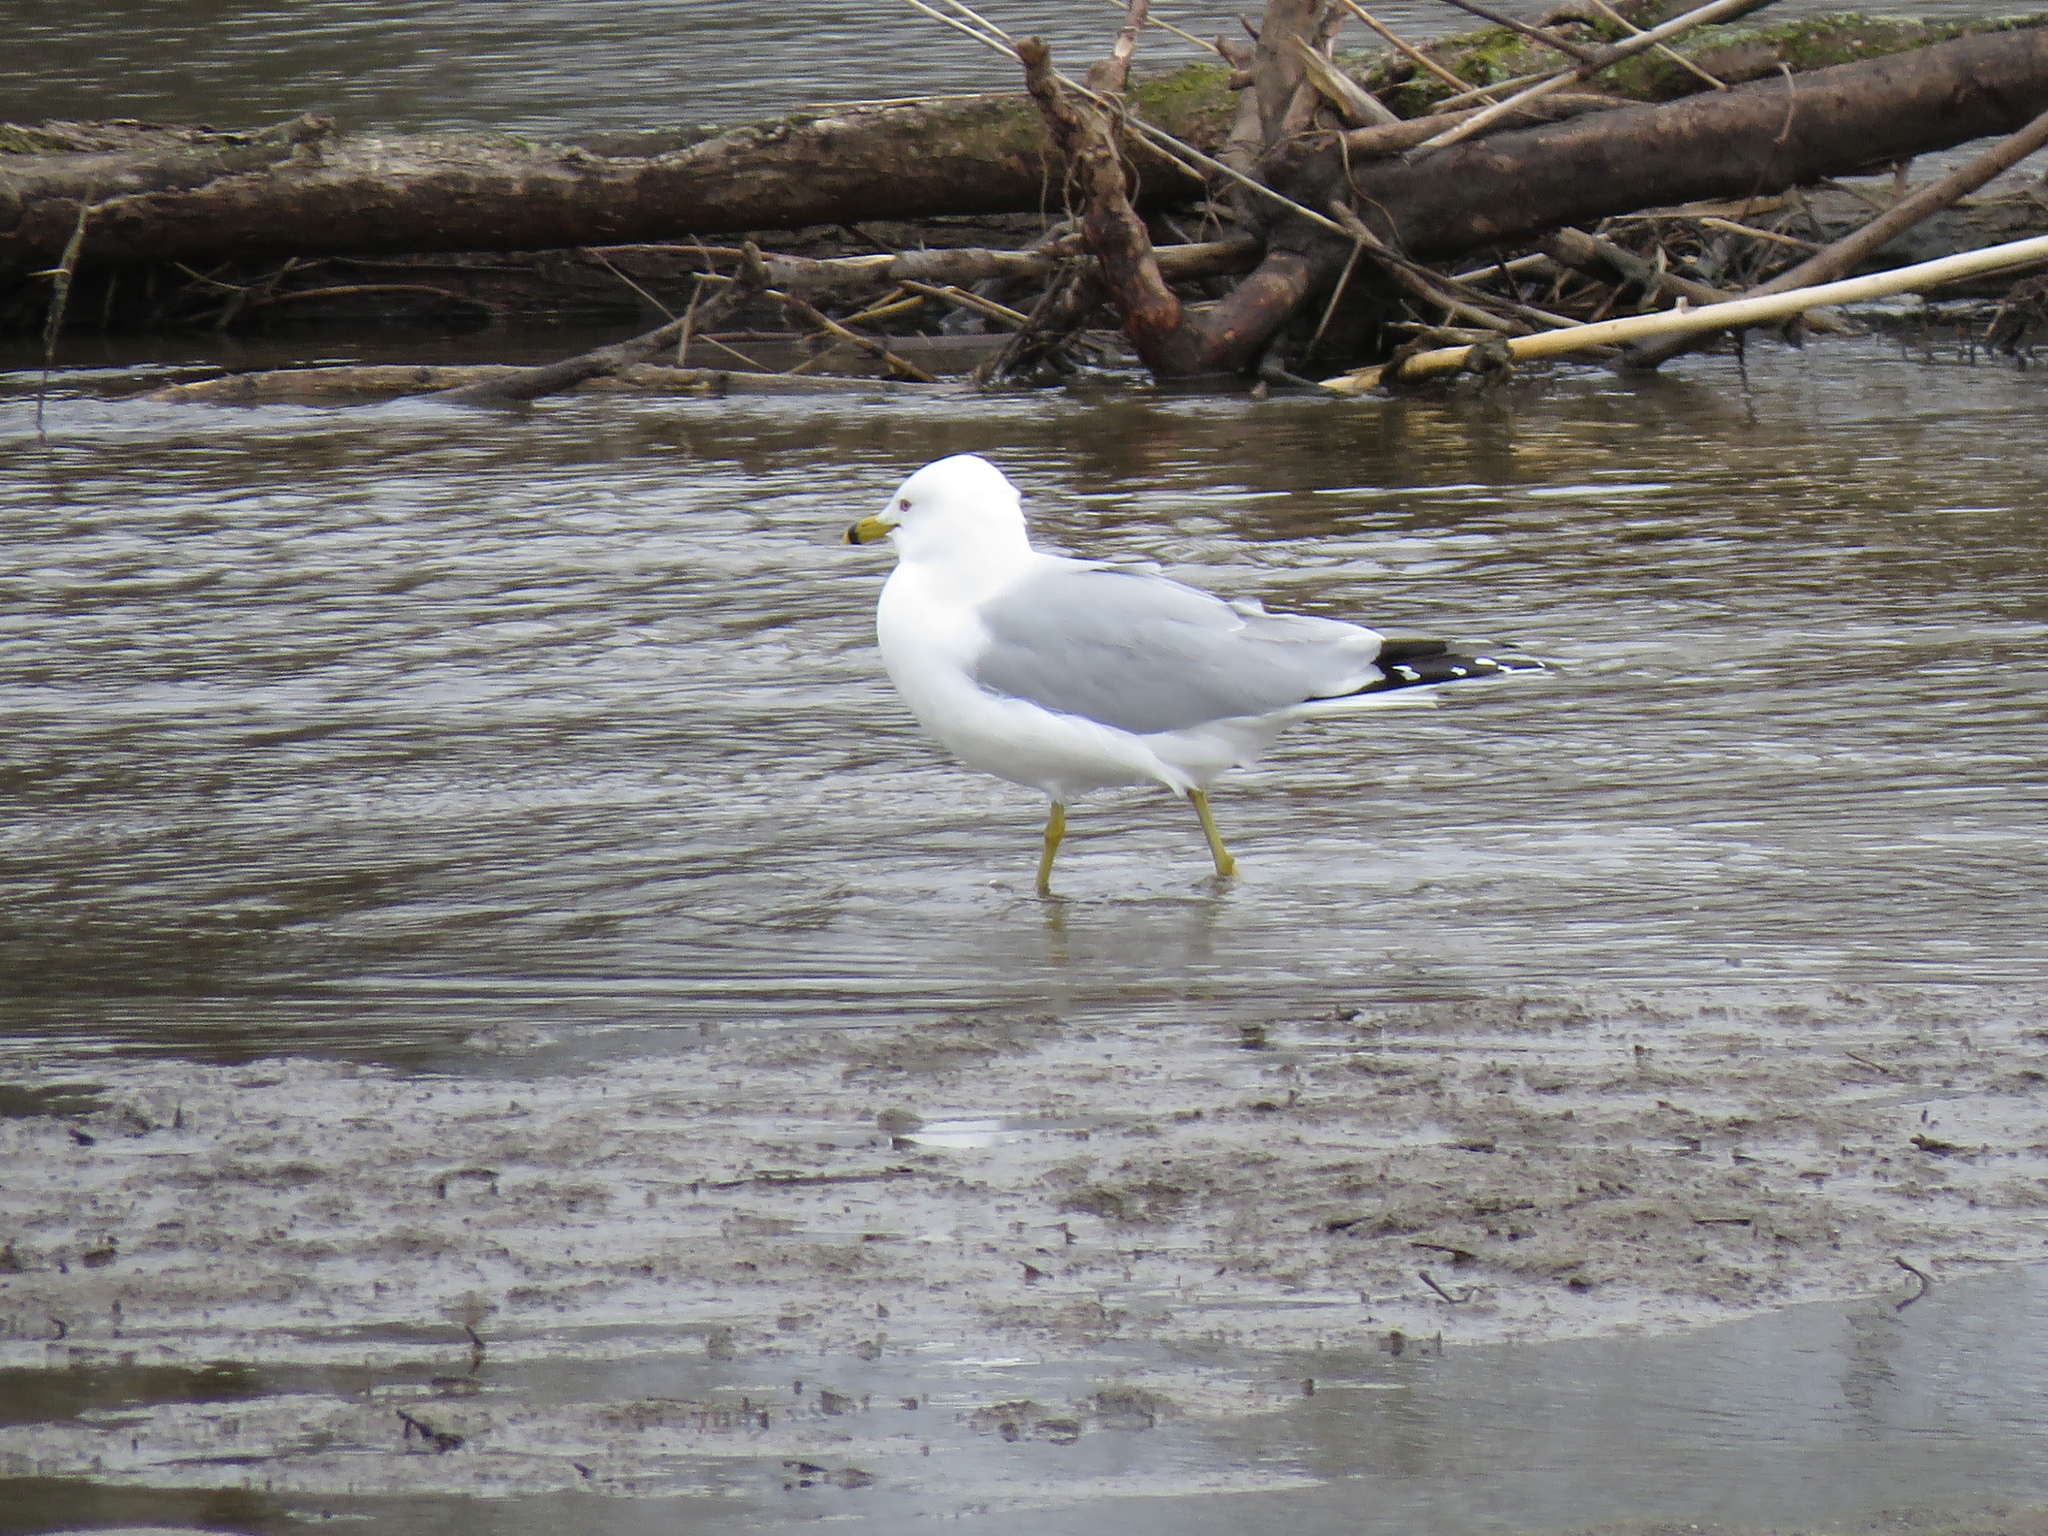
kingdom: Animalia
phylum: Chordata
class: Aves
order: Charadriiformes
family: Laridae
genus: Larus
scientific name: Larus delawarensis
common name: Ring-billed gull
